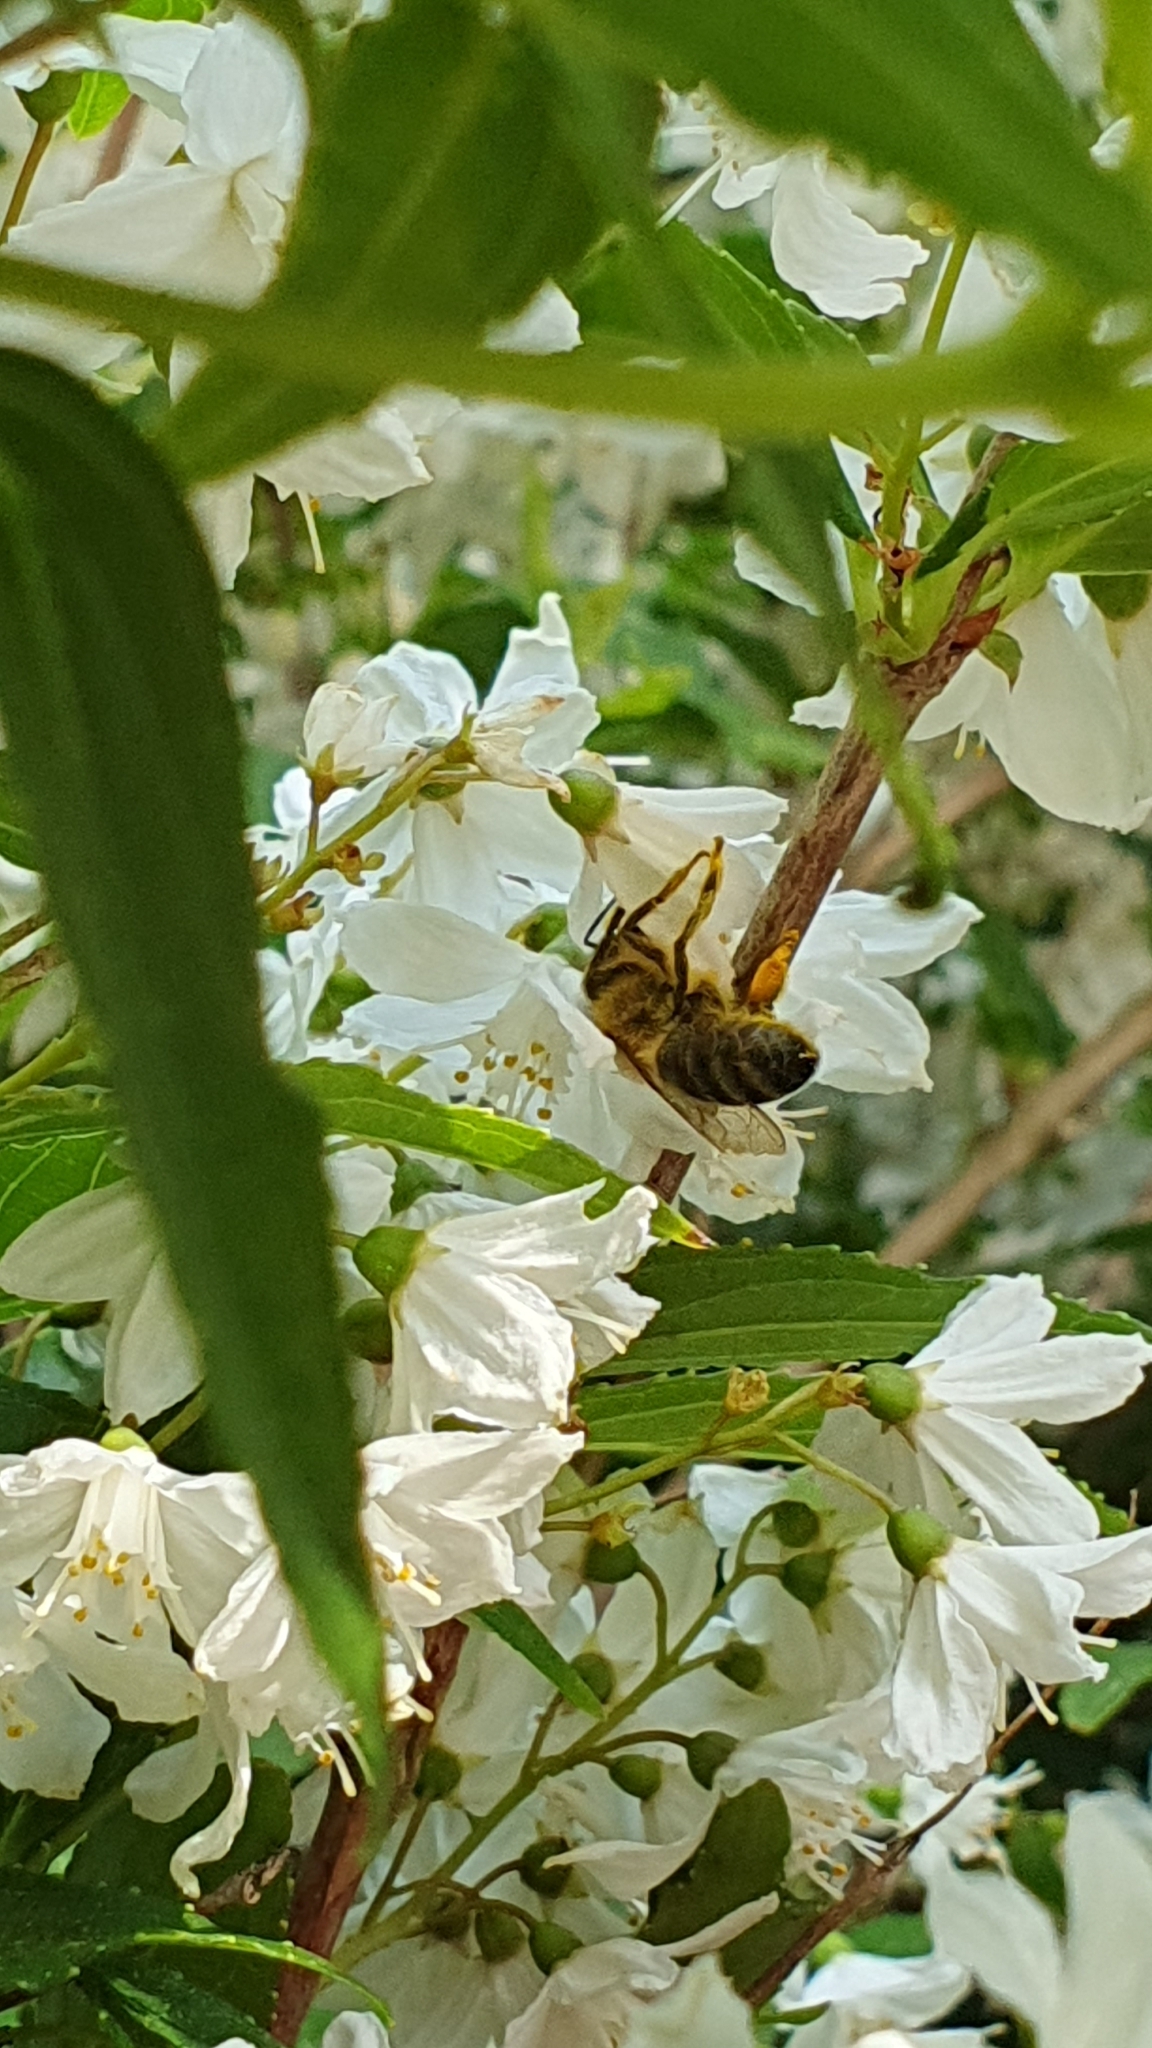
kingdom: Animalia
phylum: Arthropoda
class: Insecta
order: Hymenoptera
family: Apidae
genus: Apis
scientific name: Apis mellifera
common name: Honey bee
